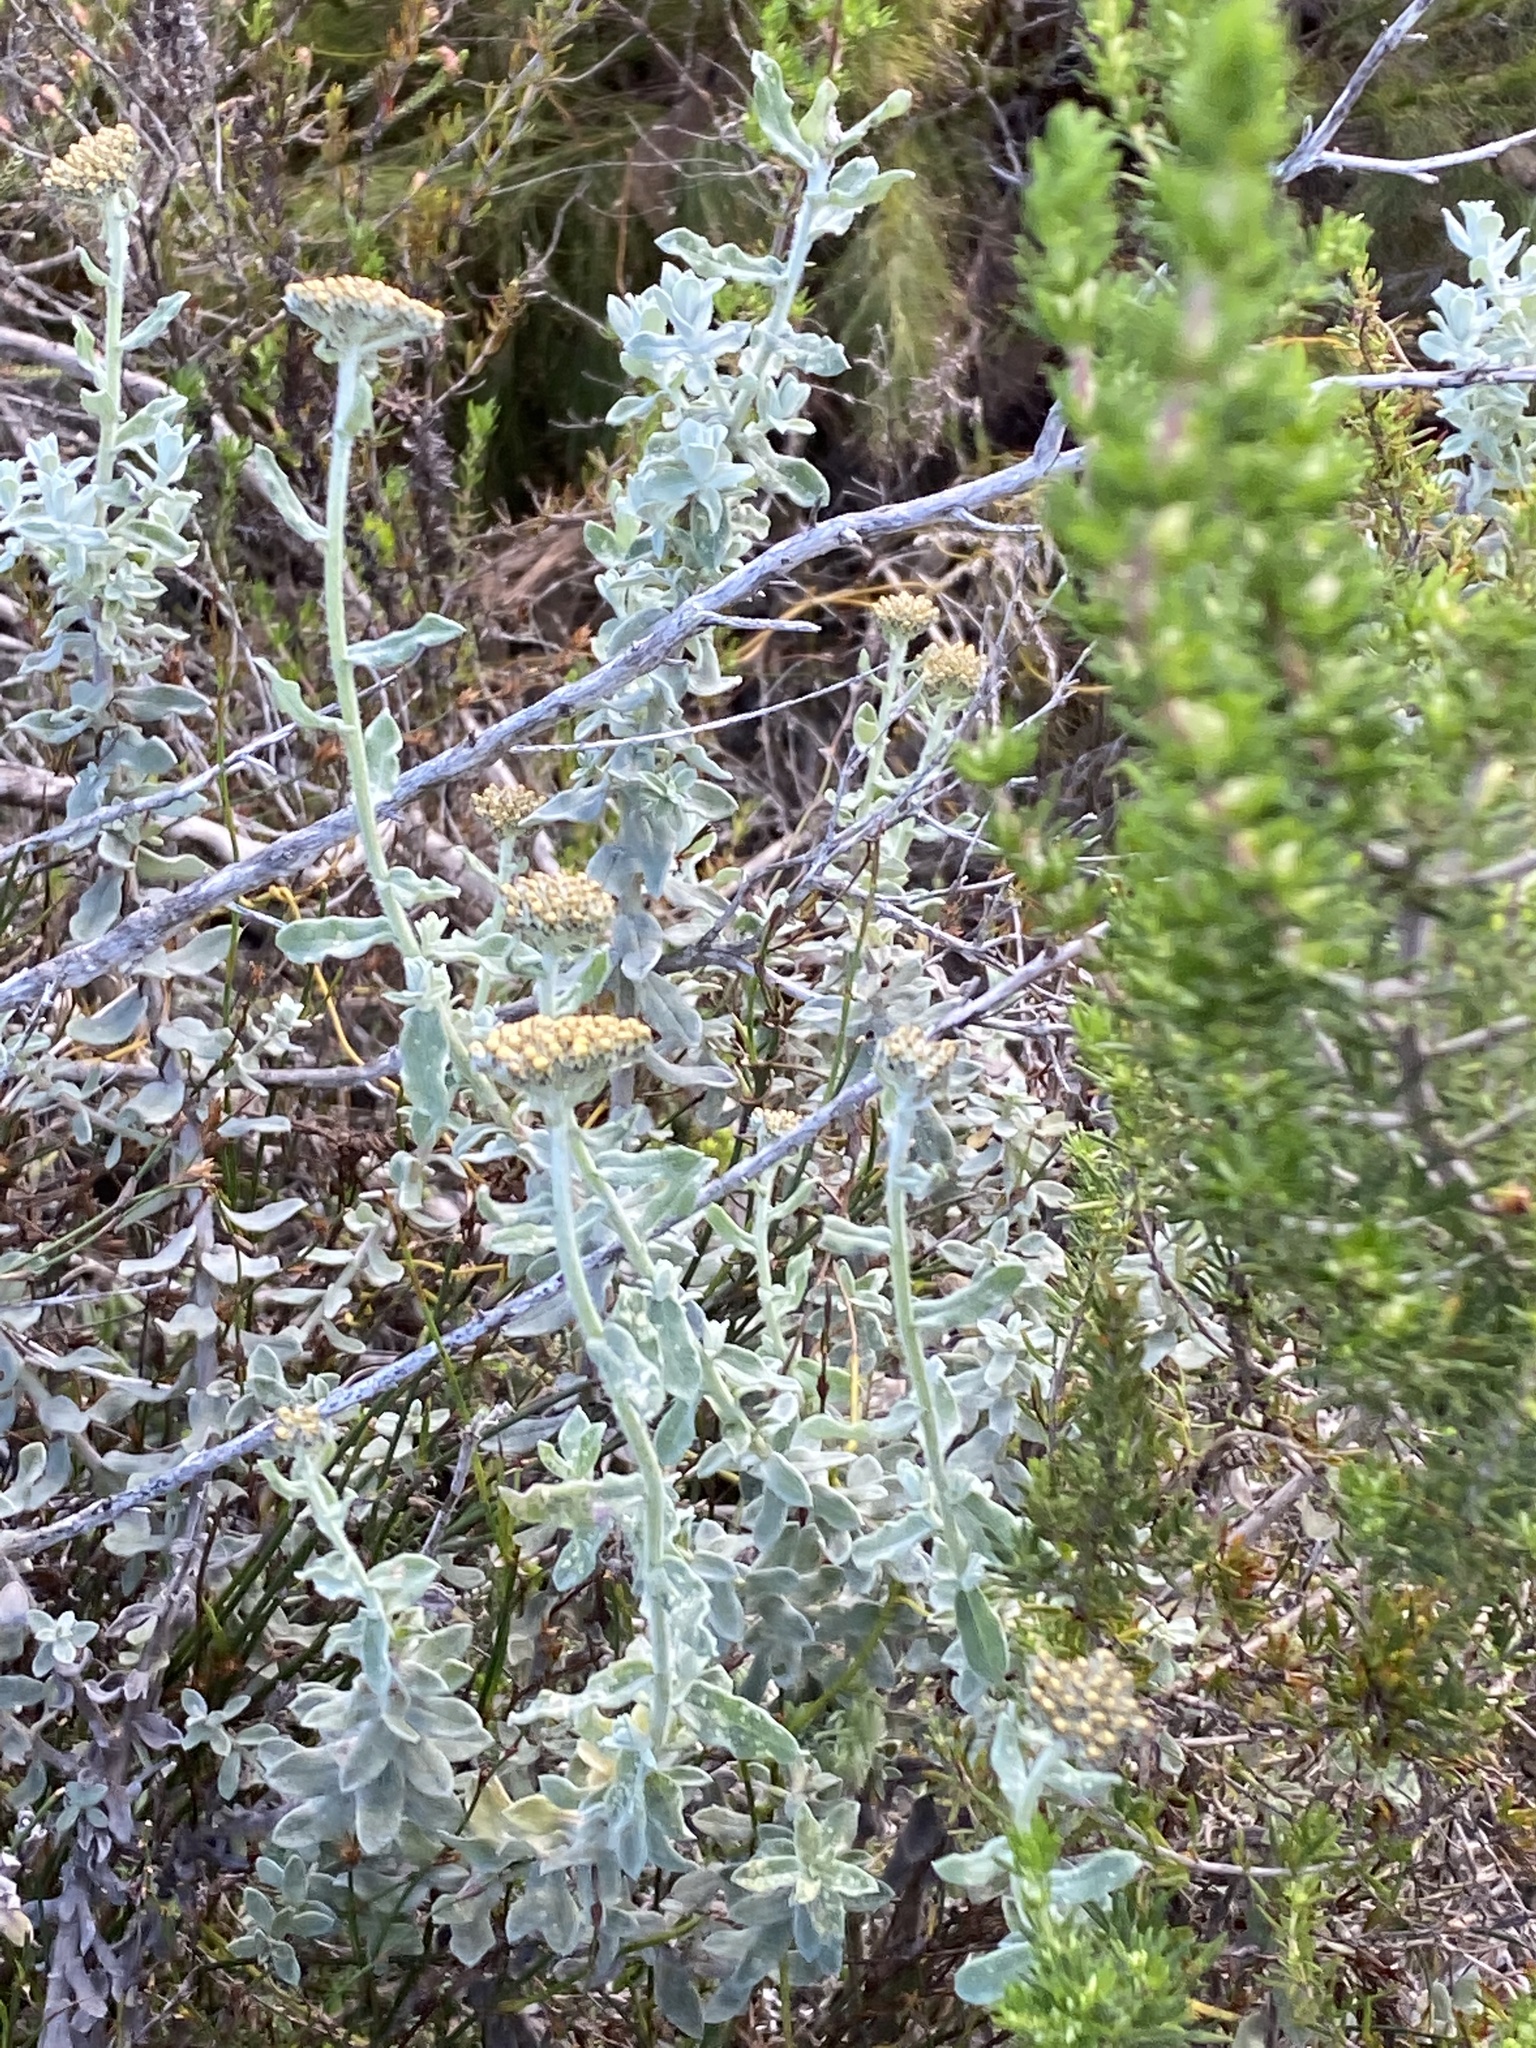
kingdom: Plantae
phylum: Tracheophyta
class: Magnoliopsida
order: Asterales
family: Asteraceae
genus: Helichrysum
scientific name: Helichrysum dasyanthum
